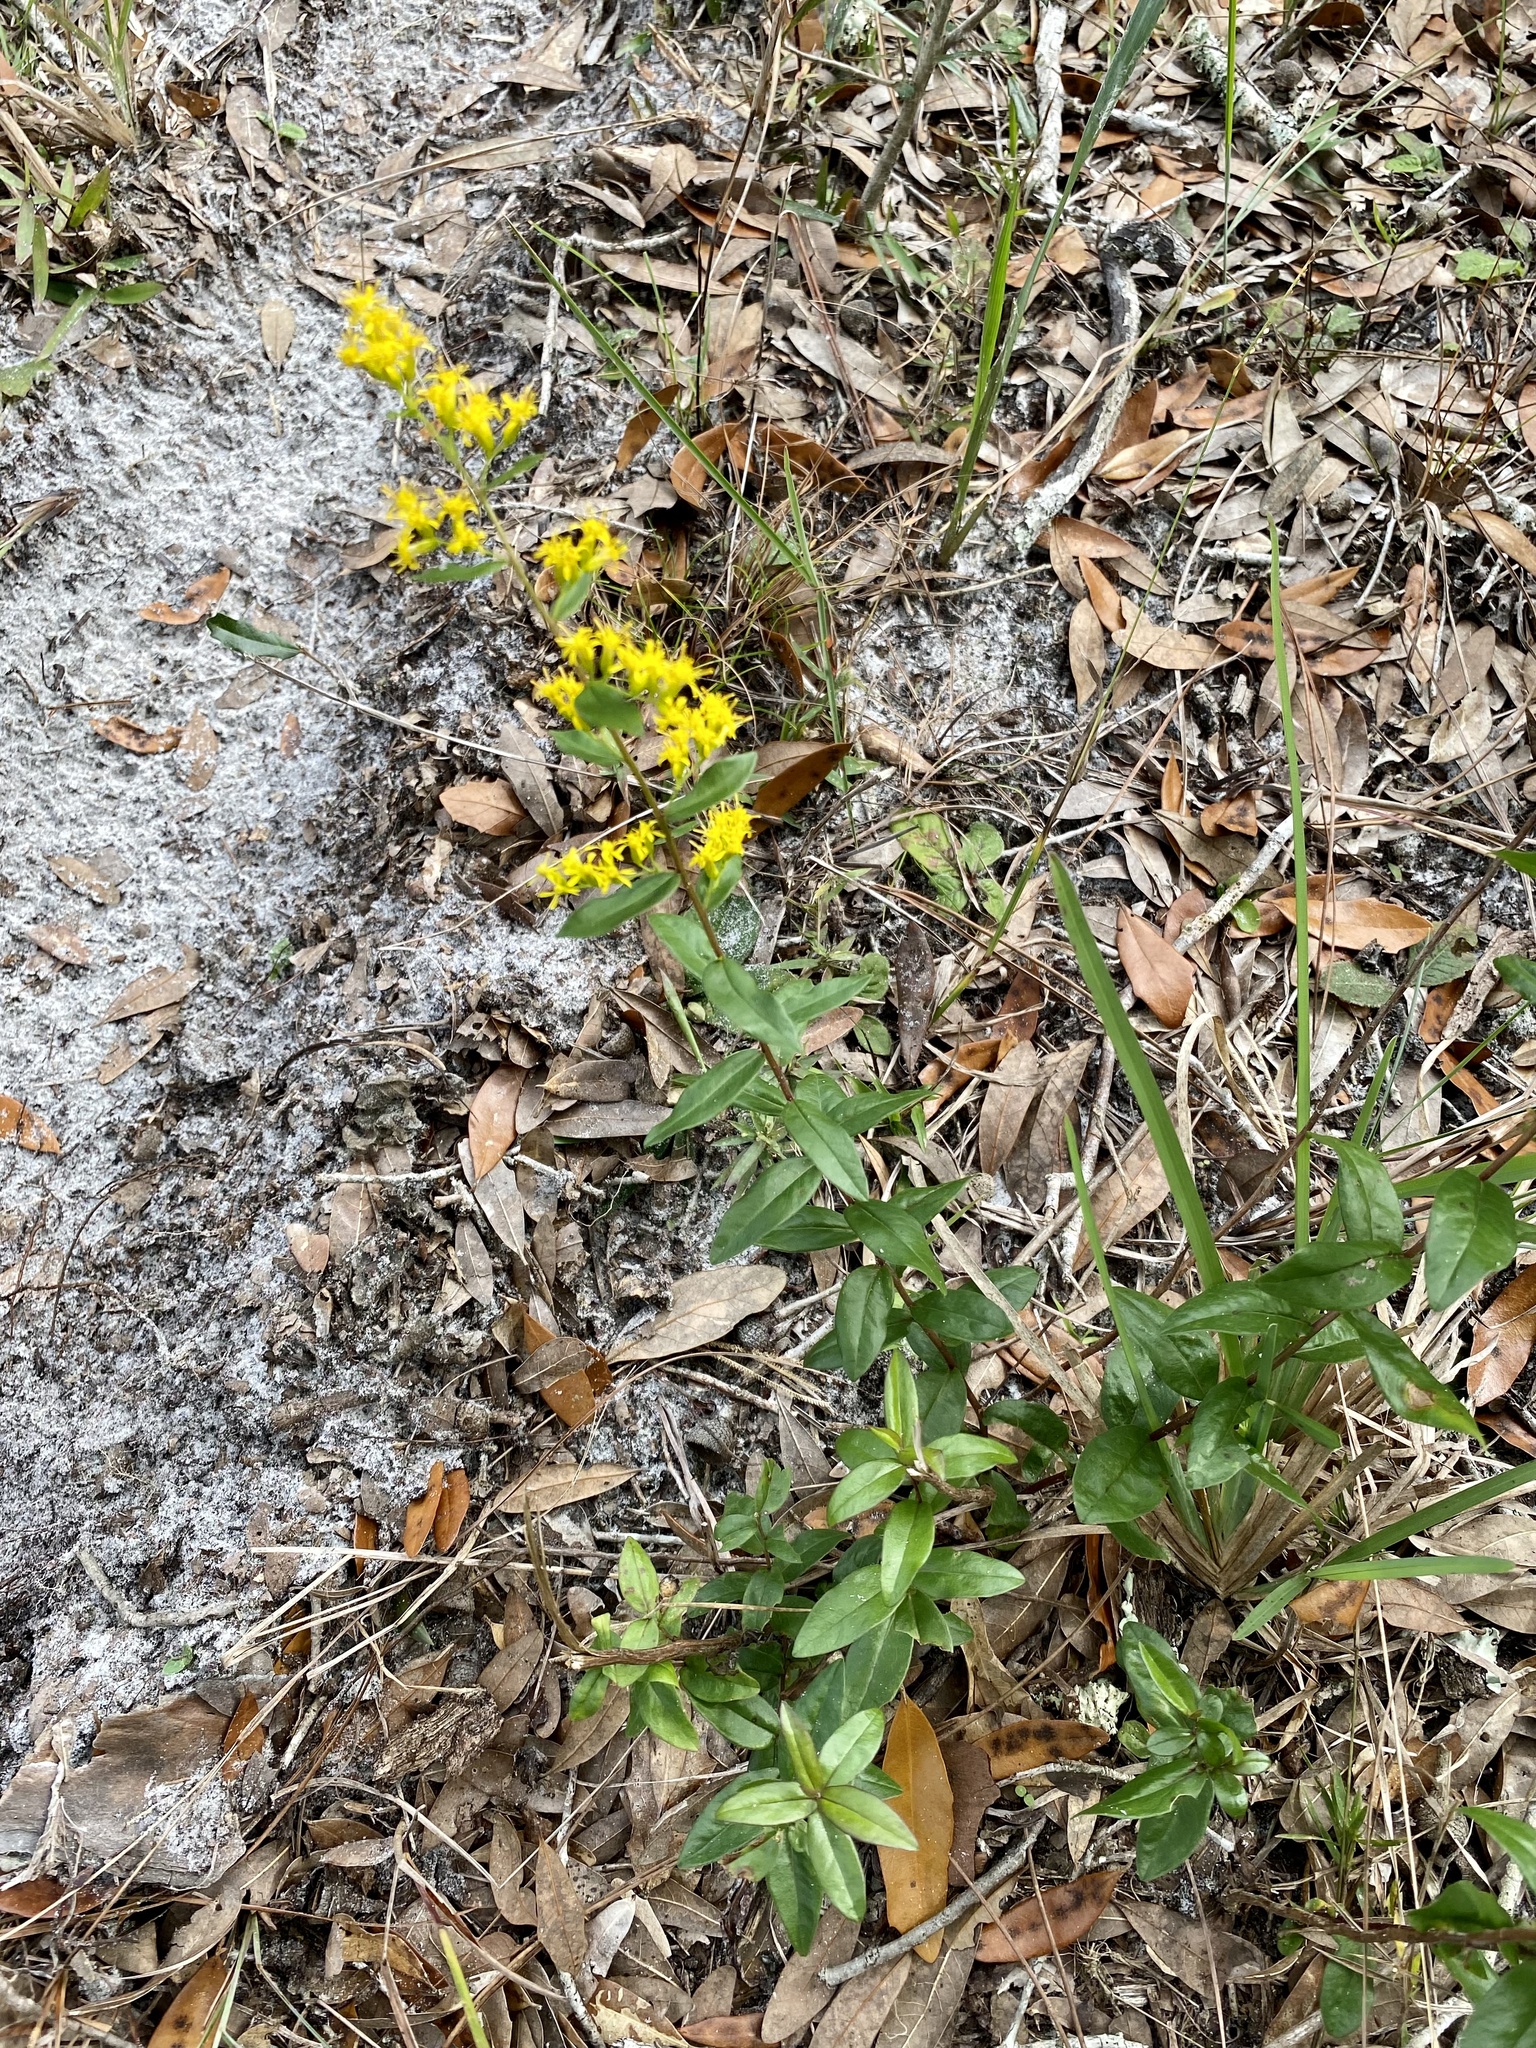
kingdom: Plantae
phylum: Tracheophyta
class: Magnoliopsida
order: Asterales
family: Asteraceae
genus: Solidago
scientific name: Solidago chapmanii
